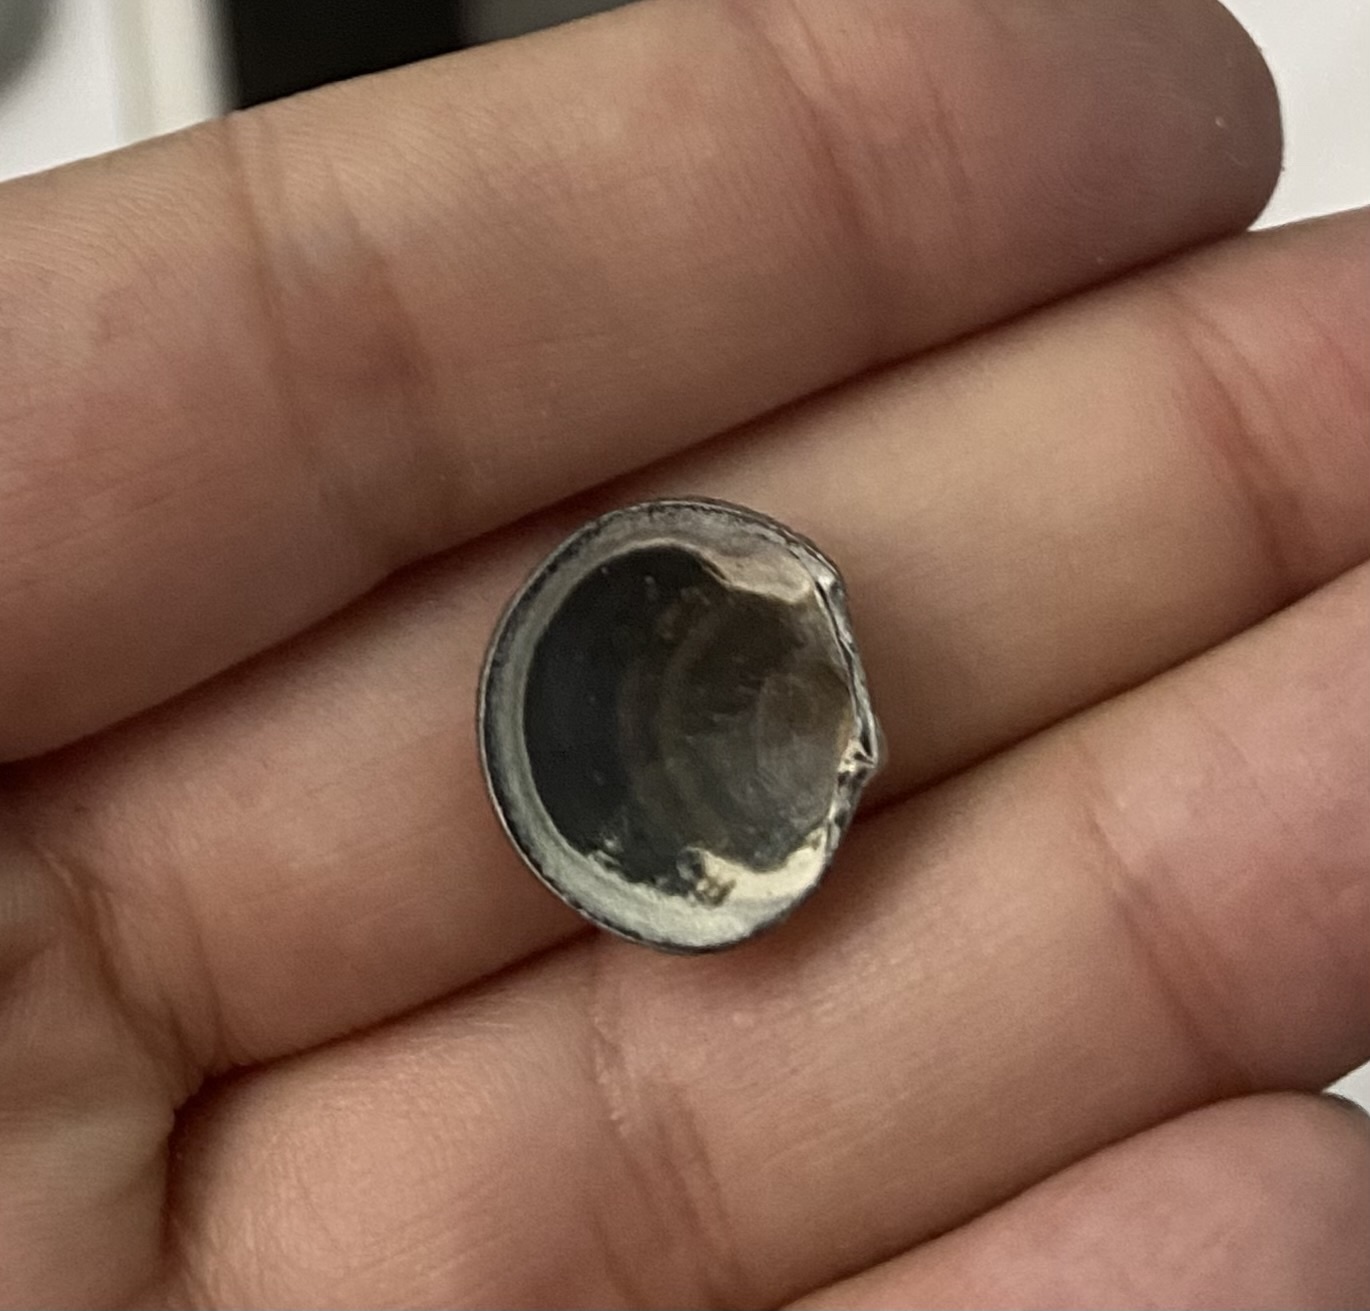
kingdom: Animalia
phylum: Mollusca
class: Bivalvia
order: Lucinida
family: Lucinidae
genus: Divalinga
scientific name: Divalinga quadrisulcata
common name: Cross-hatched lucine
